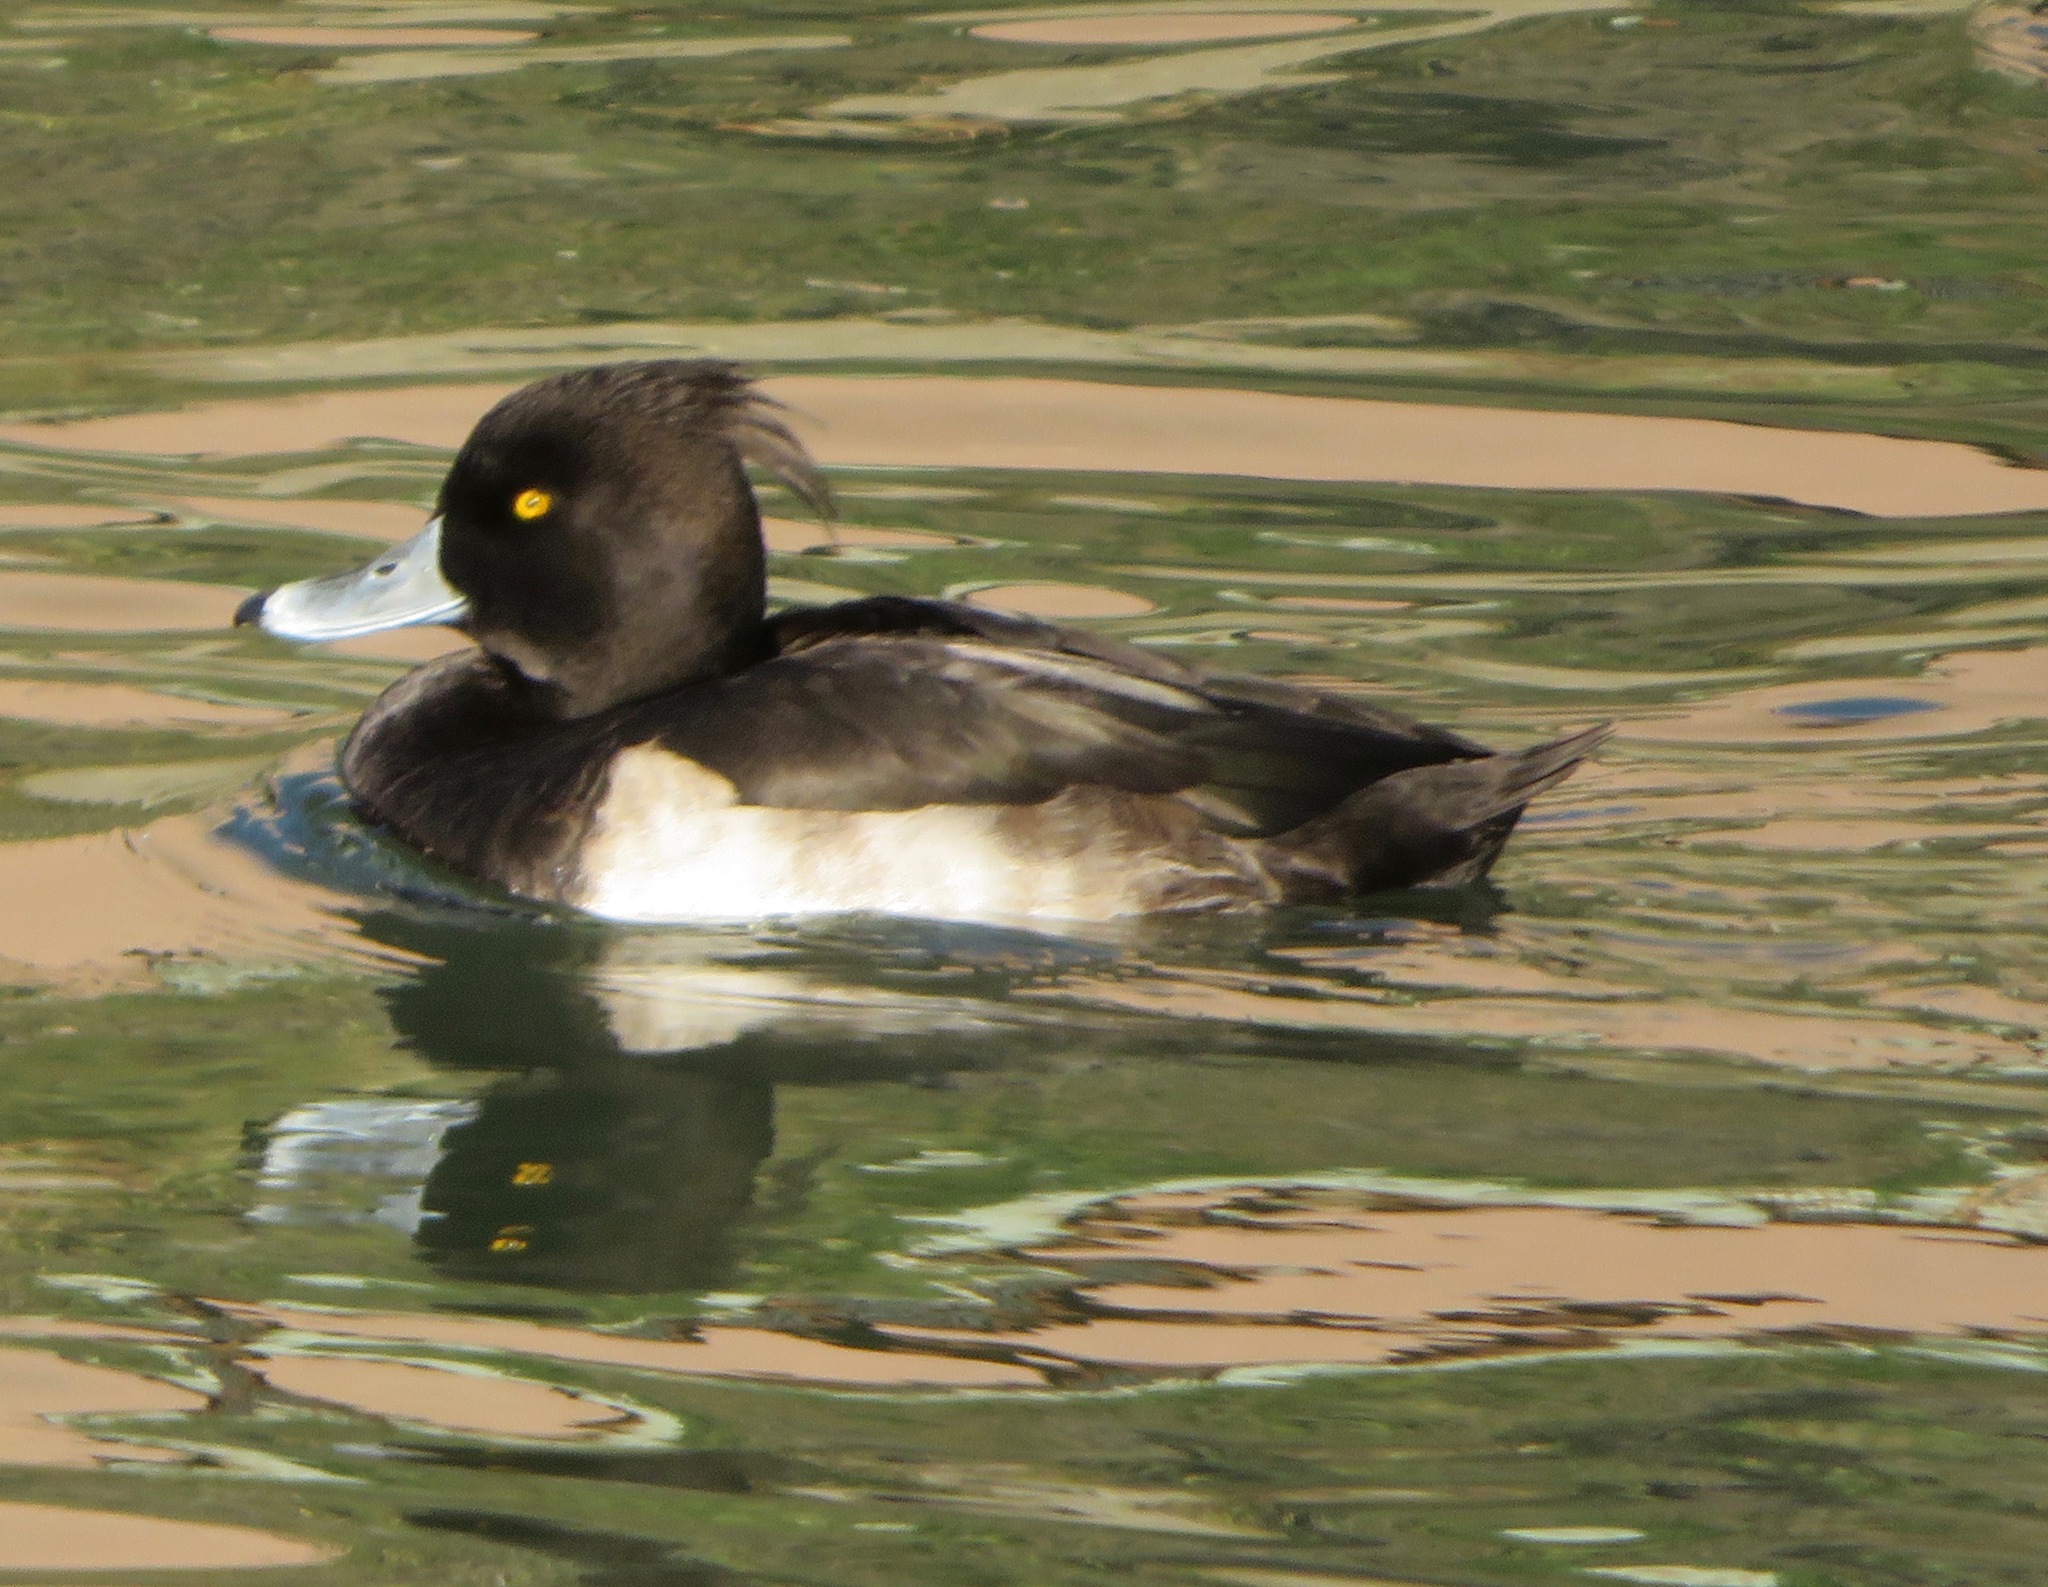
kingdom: Animalia
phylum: Chordata
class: Aves
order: Anseriformes
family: Anatidae
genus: Aythya
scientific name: Aythya fuligula
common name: Tufted duck
